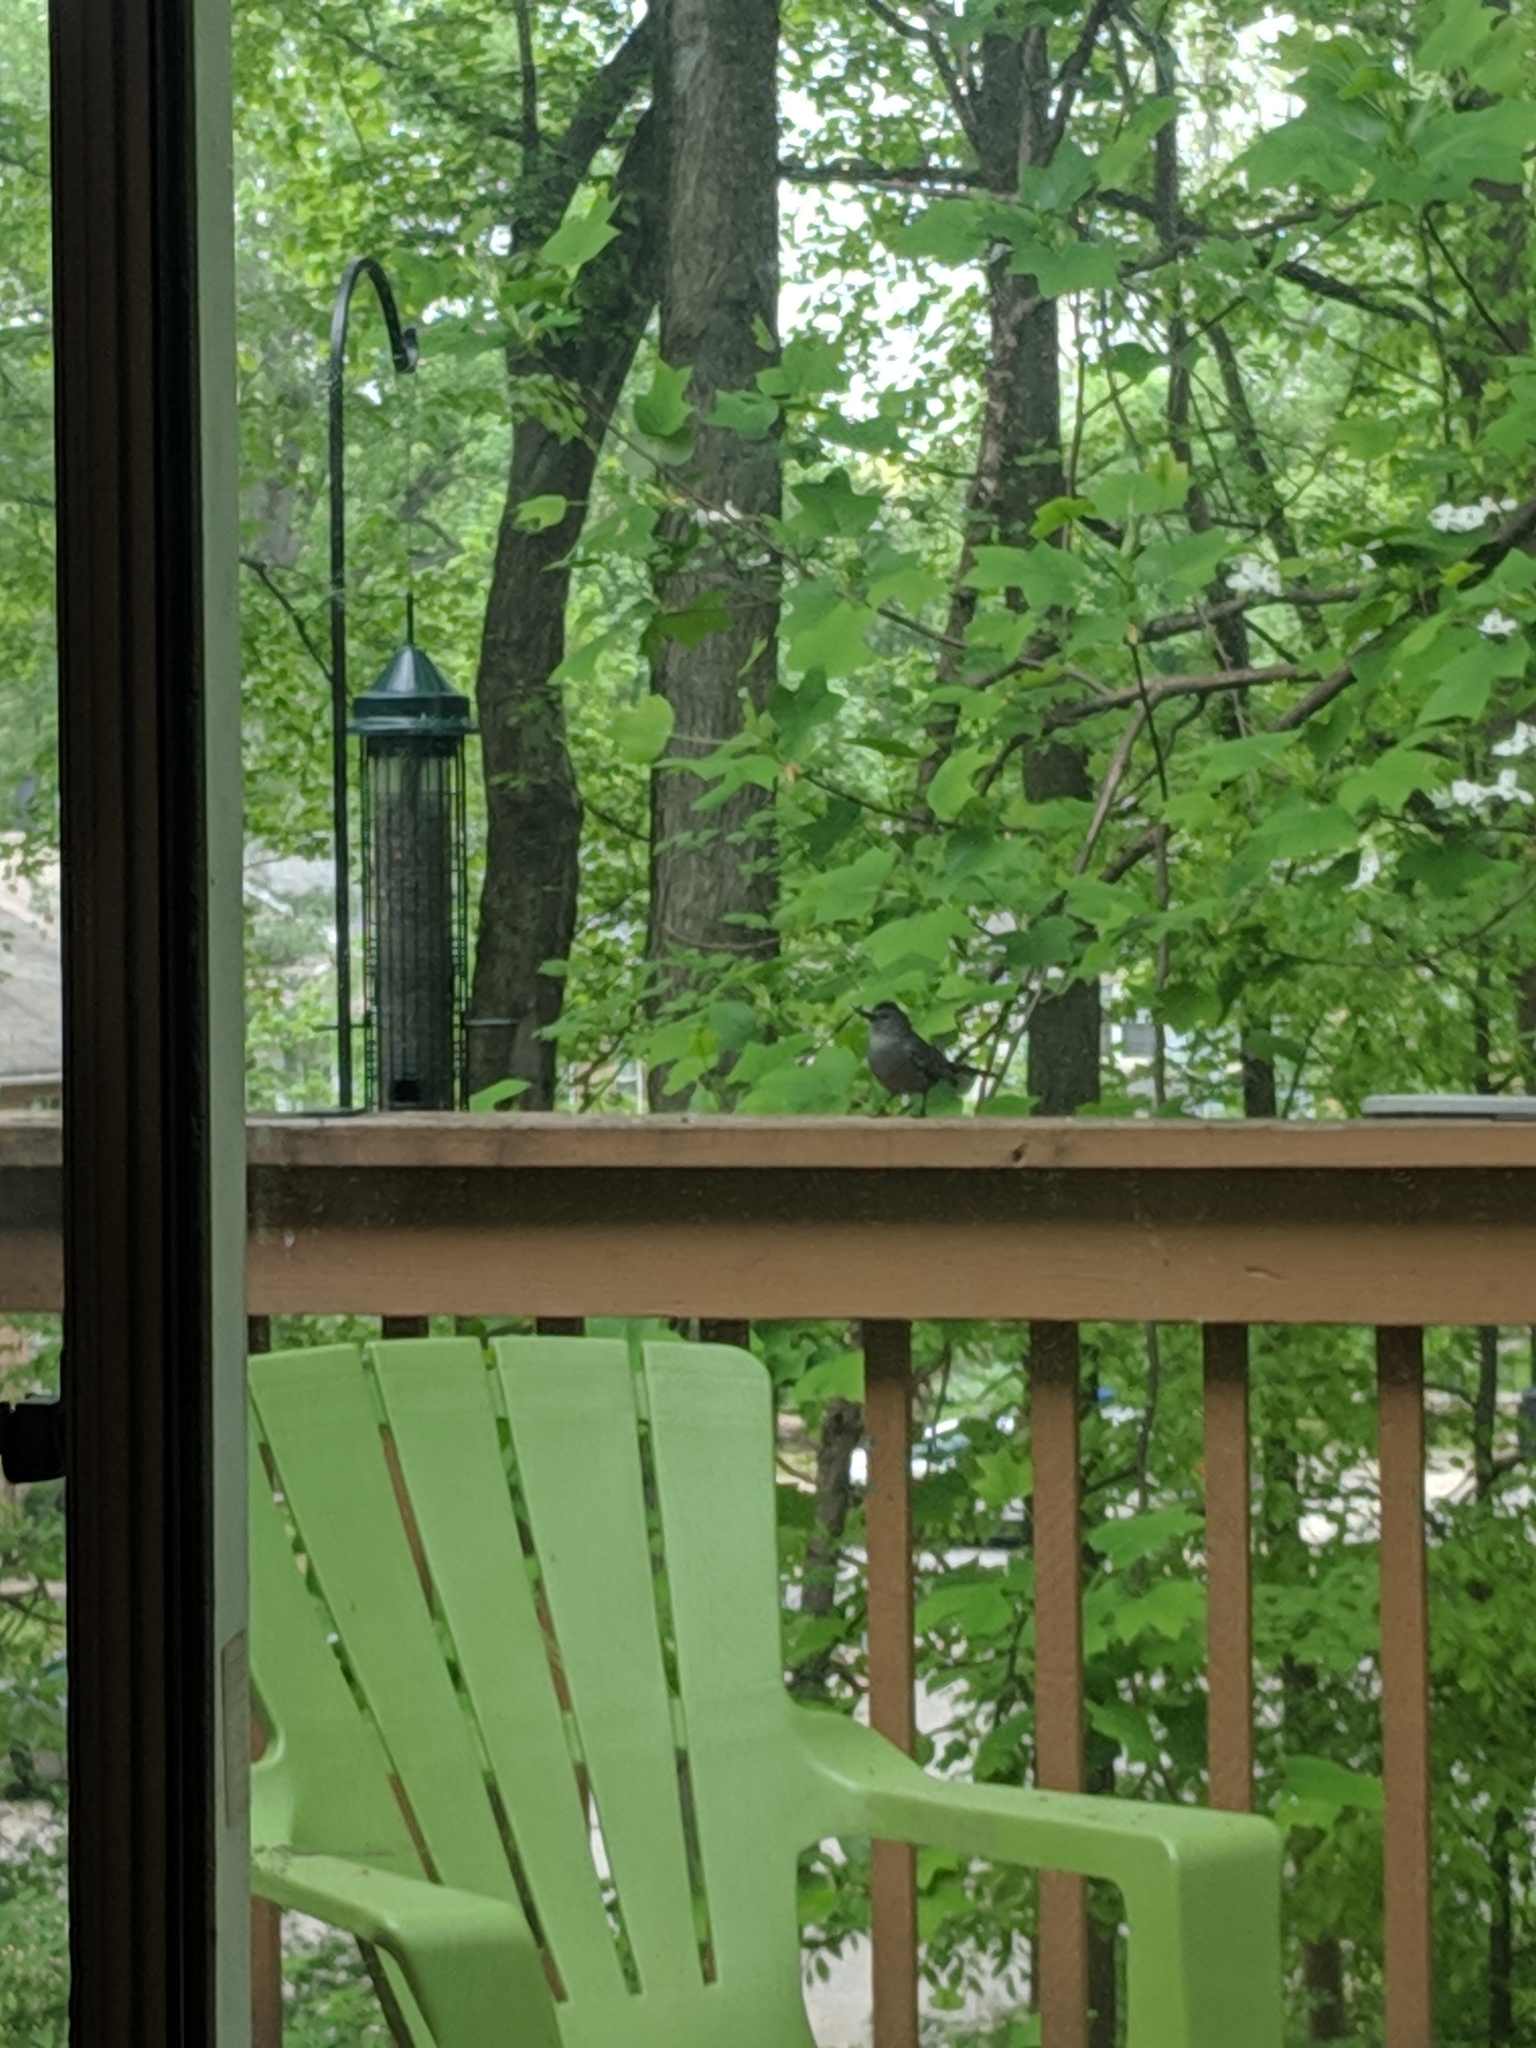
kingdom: Animalia
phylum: Chordata
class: Aves
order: Passeriformes
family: Mimidae
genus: Dumetella
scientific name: Dumetella carolinensis
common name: Gray catbird
